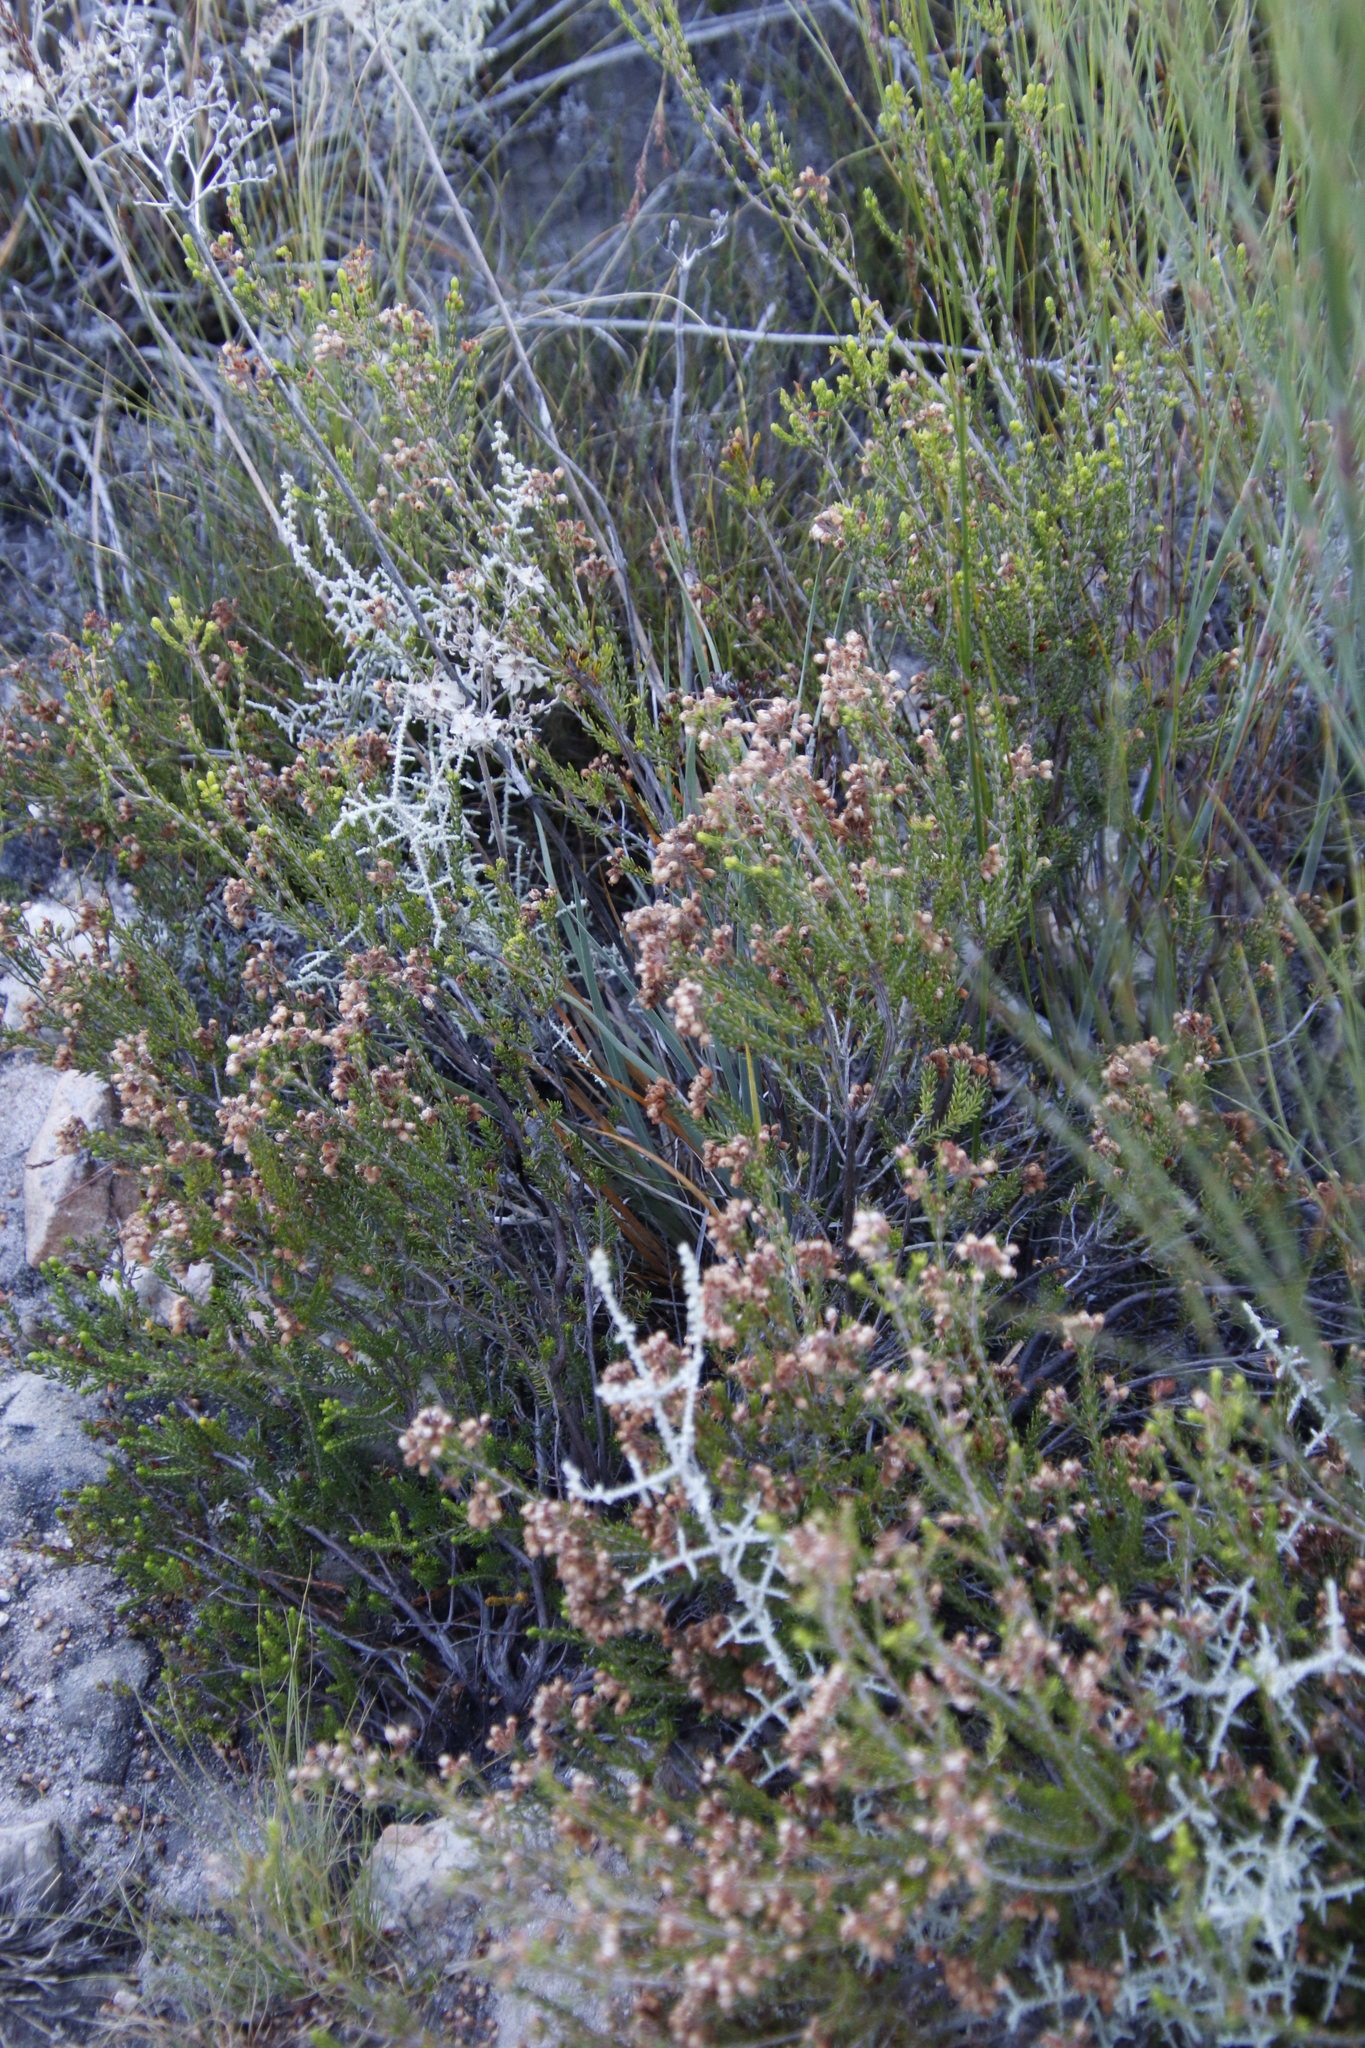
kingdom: Plantae
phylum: Tracheophyta
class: Magnoliopsida
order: Ericales
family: Ericaceae
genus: Erica
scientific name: Erica verecunda
